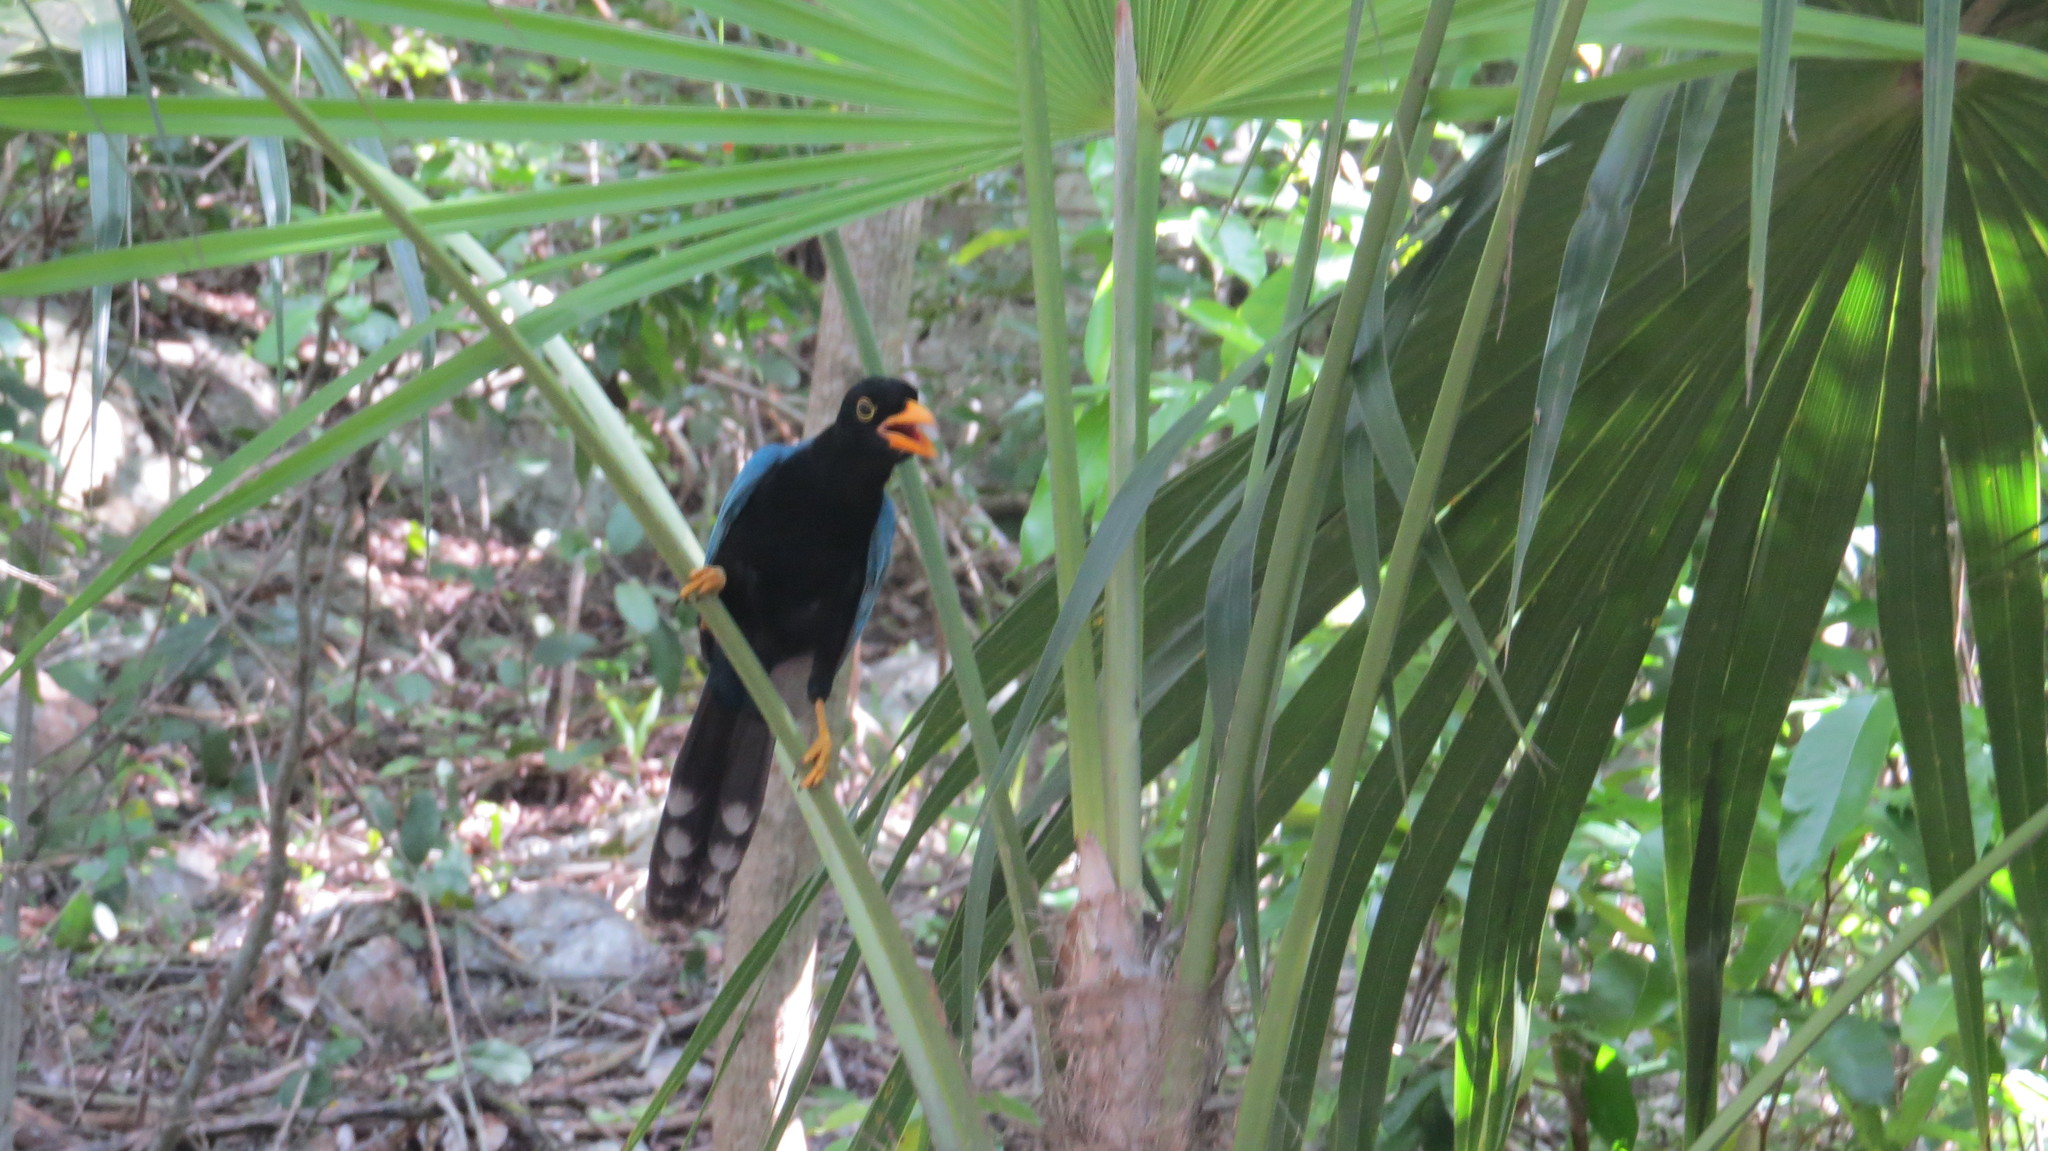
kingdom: Animalia
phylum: Chordata
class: Aves
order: Passeriformes
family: Corvidae
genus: Cyanocorax
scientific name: Cyanocorax yucatanicus
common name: Yucatan jay
